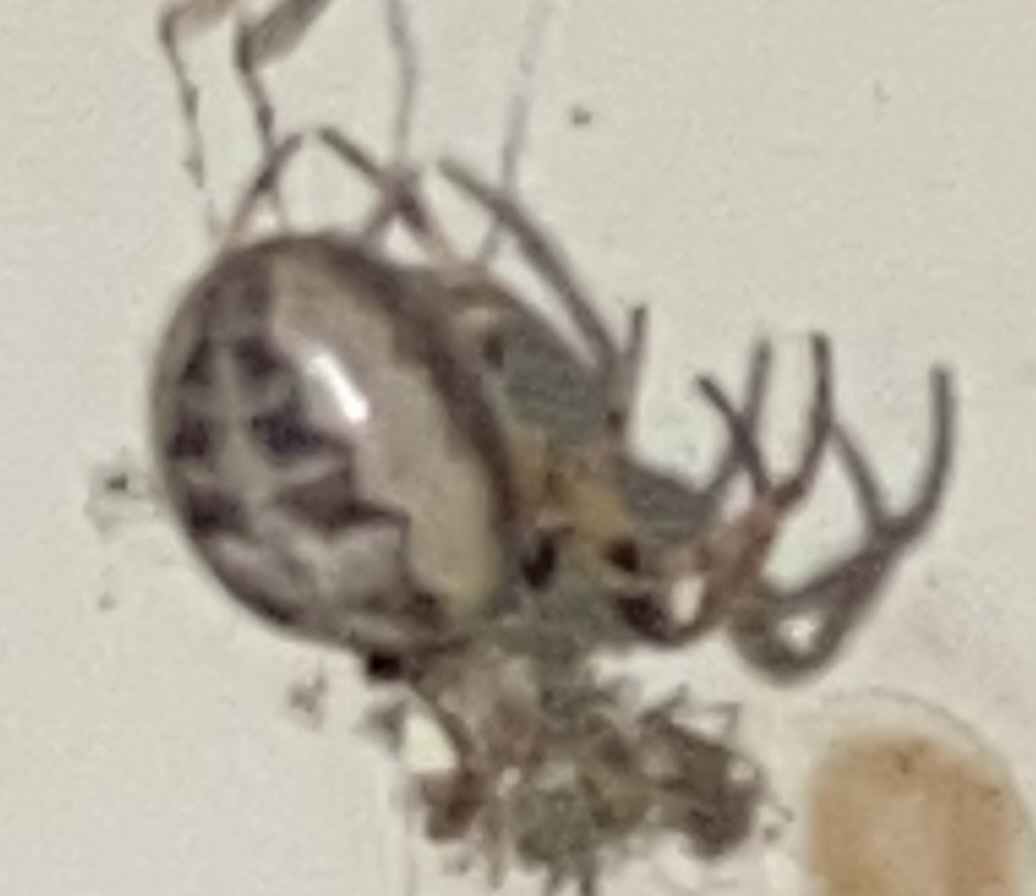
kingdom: Animalia
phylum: Arthropoda
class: Arachnida
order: Araneae
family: Araneidae
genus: Larinioides
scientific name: Larinioides cornutus
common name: Furrow orbweaver
